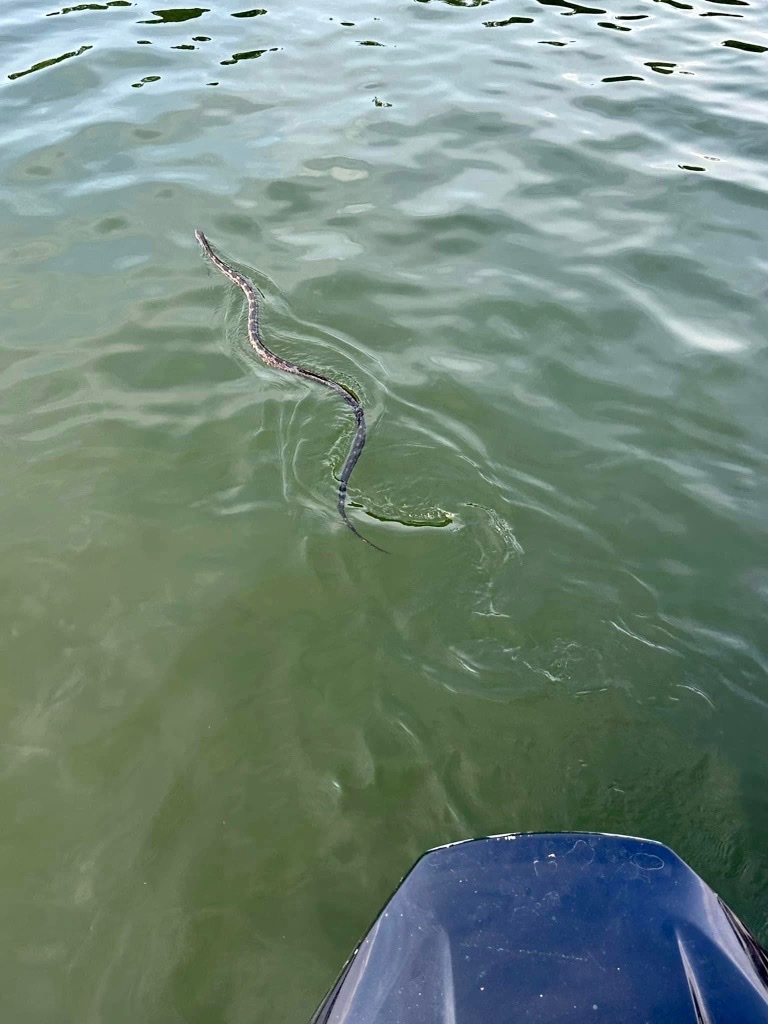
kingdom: Animalia
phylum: Chordata
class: Squamata
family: Colubridae
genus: Pantherophis
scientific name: Pantherophis spiloides
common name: Gray rat snake
